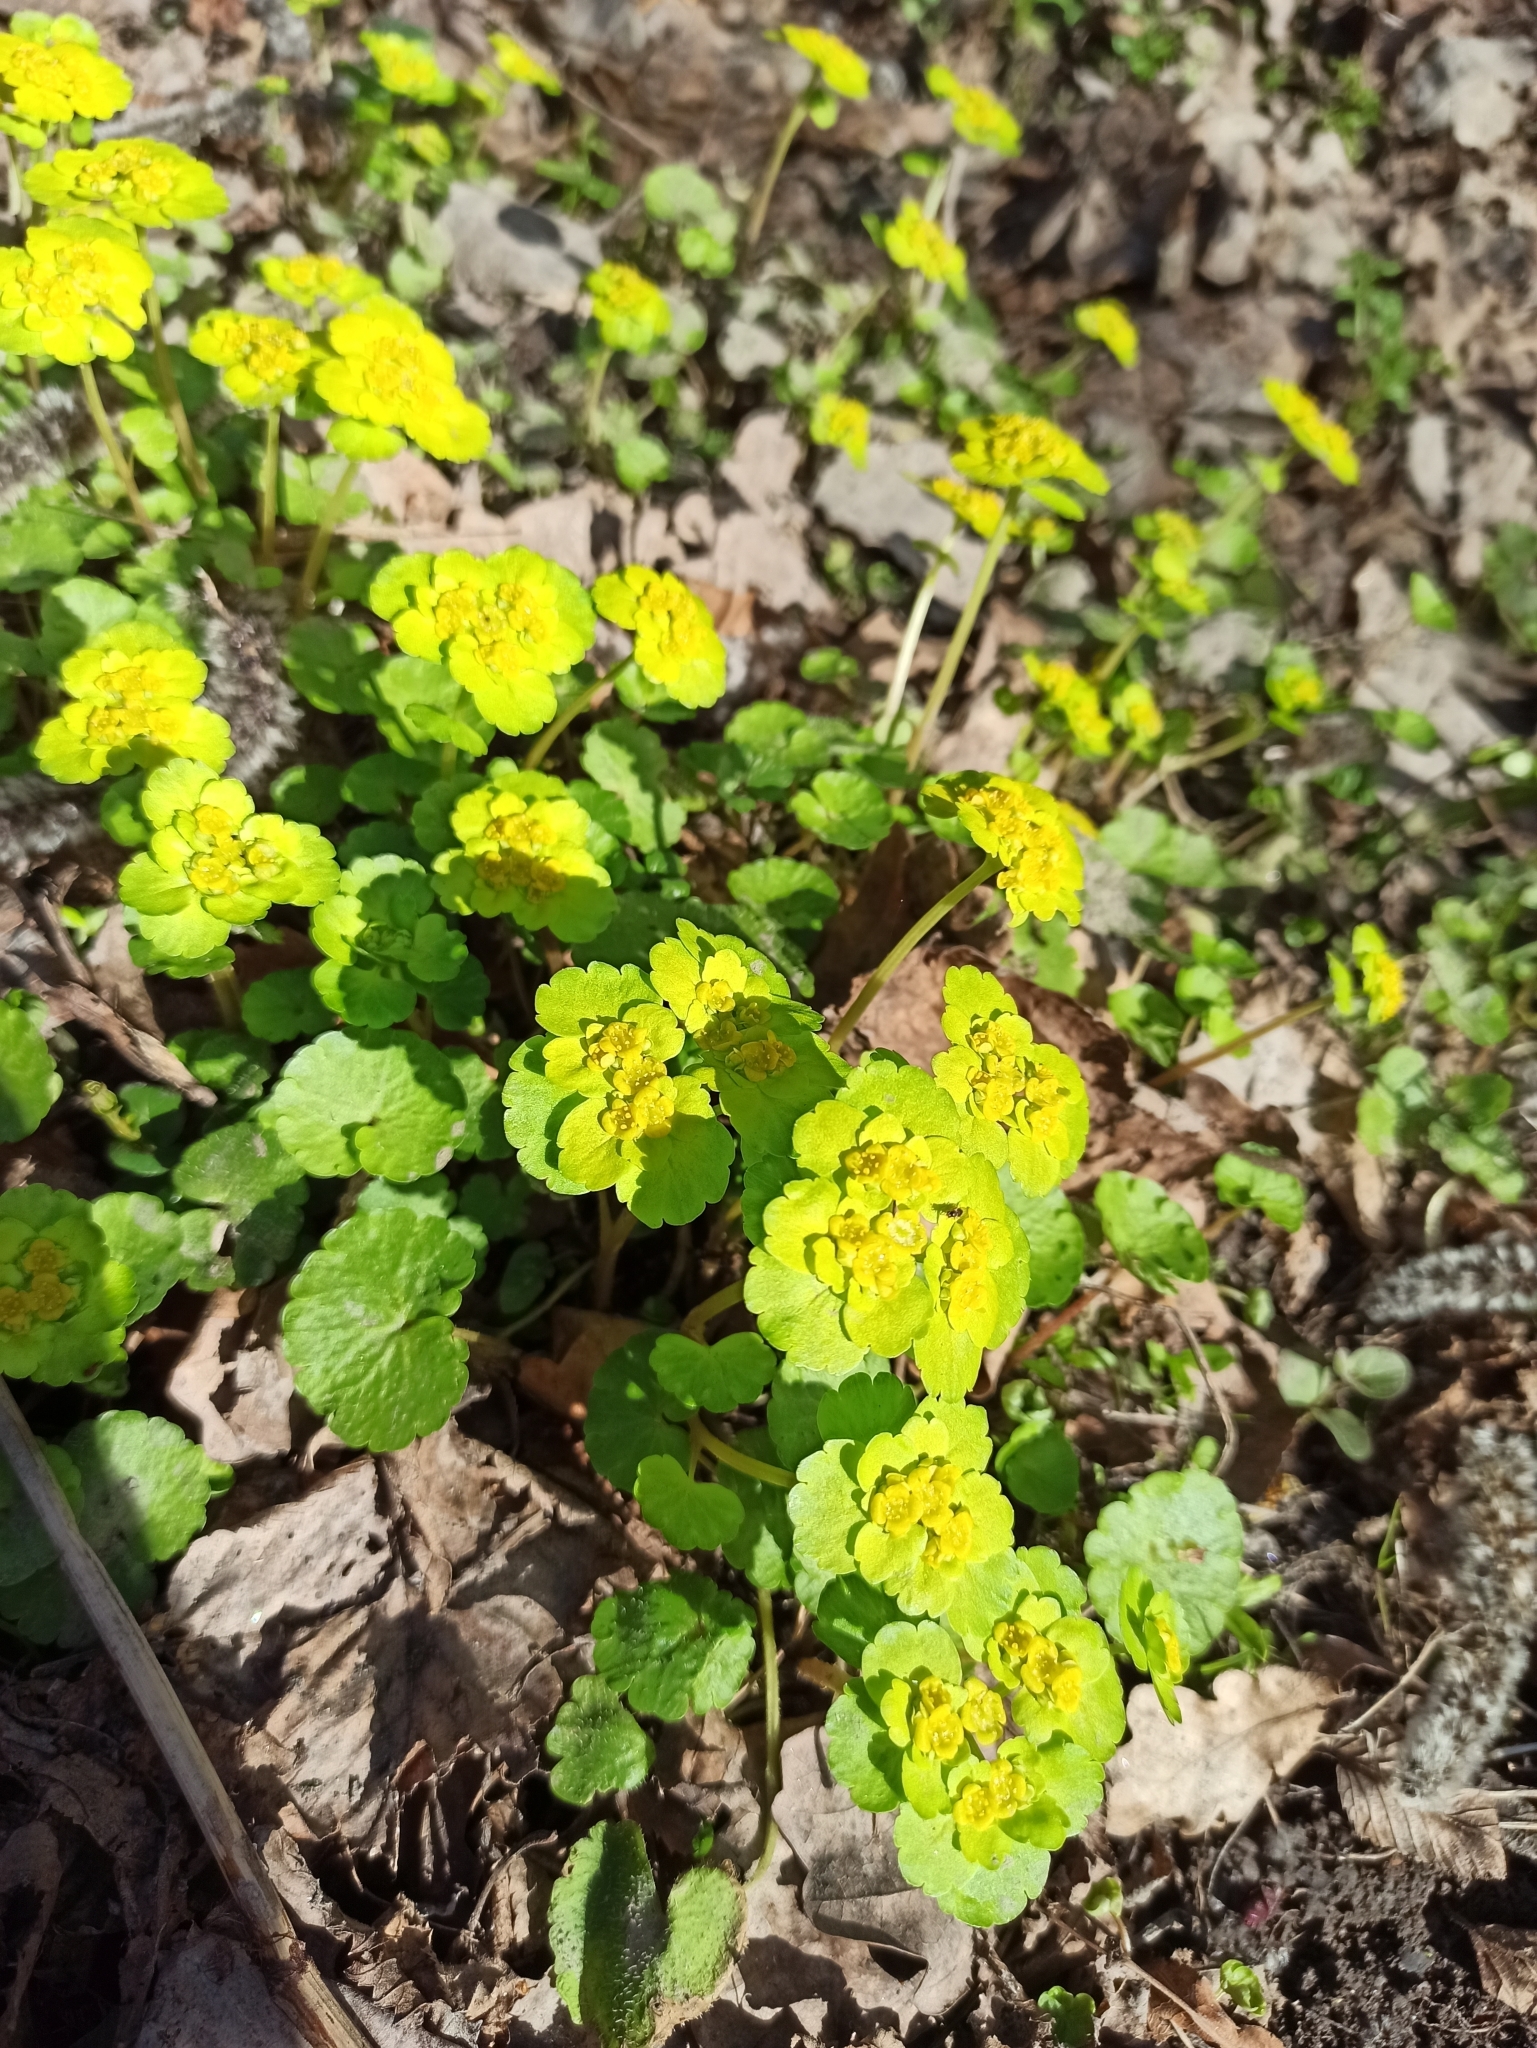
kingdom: Plantae
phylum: Tracheophyta
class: Magnoliopsida
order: Saxifragales
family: Saxifragaceae
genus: Chrysosplenium
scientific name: Chrysosplenium alternifolium
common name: Alternate-leaved golden-saxifrage
